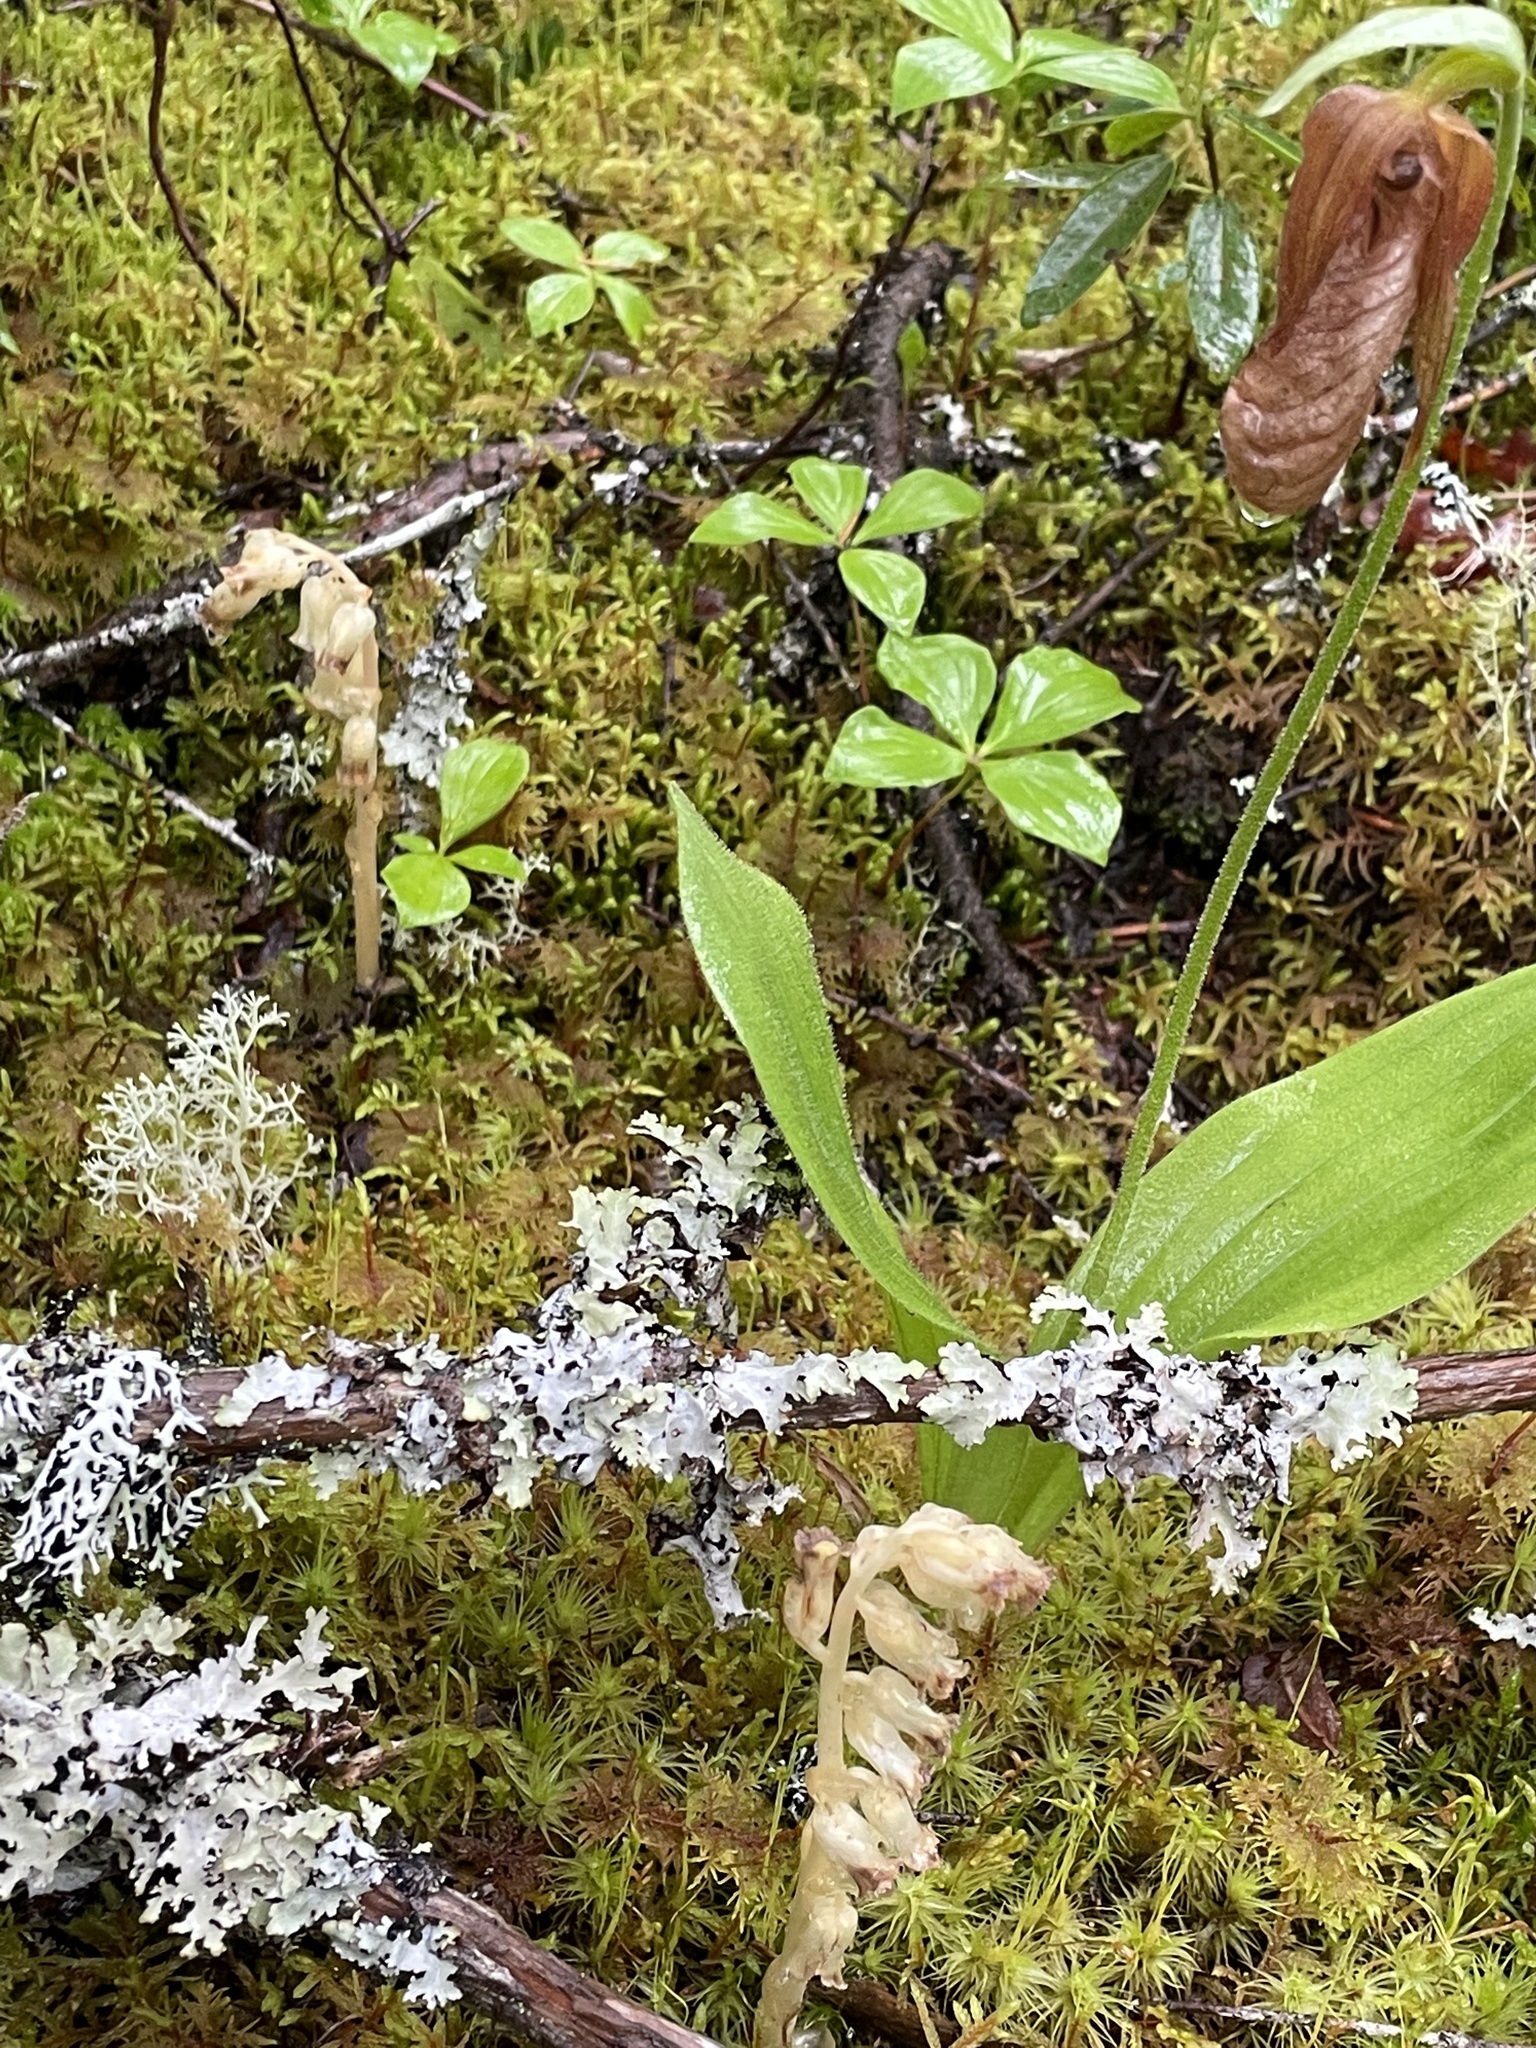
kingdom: Plantae
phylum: Tracheophyta
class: Magnoliopsida
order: Ericales
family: Ericaceae
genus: Hypopitys
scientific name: Hypopitys monotropa
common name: Yellow bird's-nest
